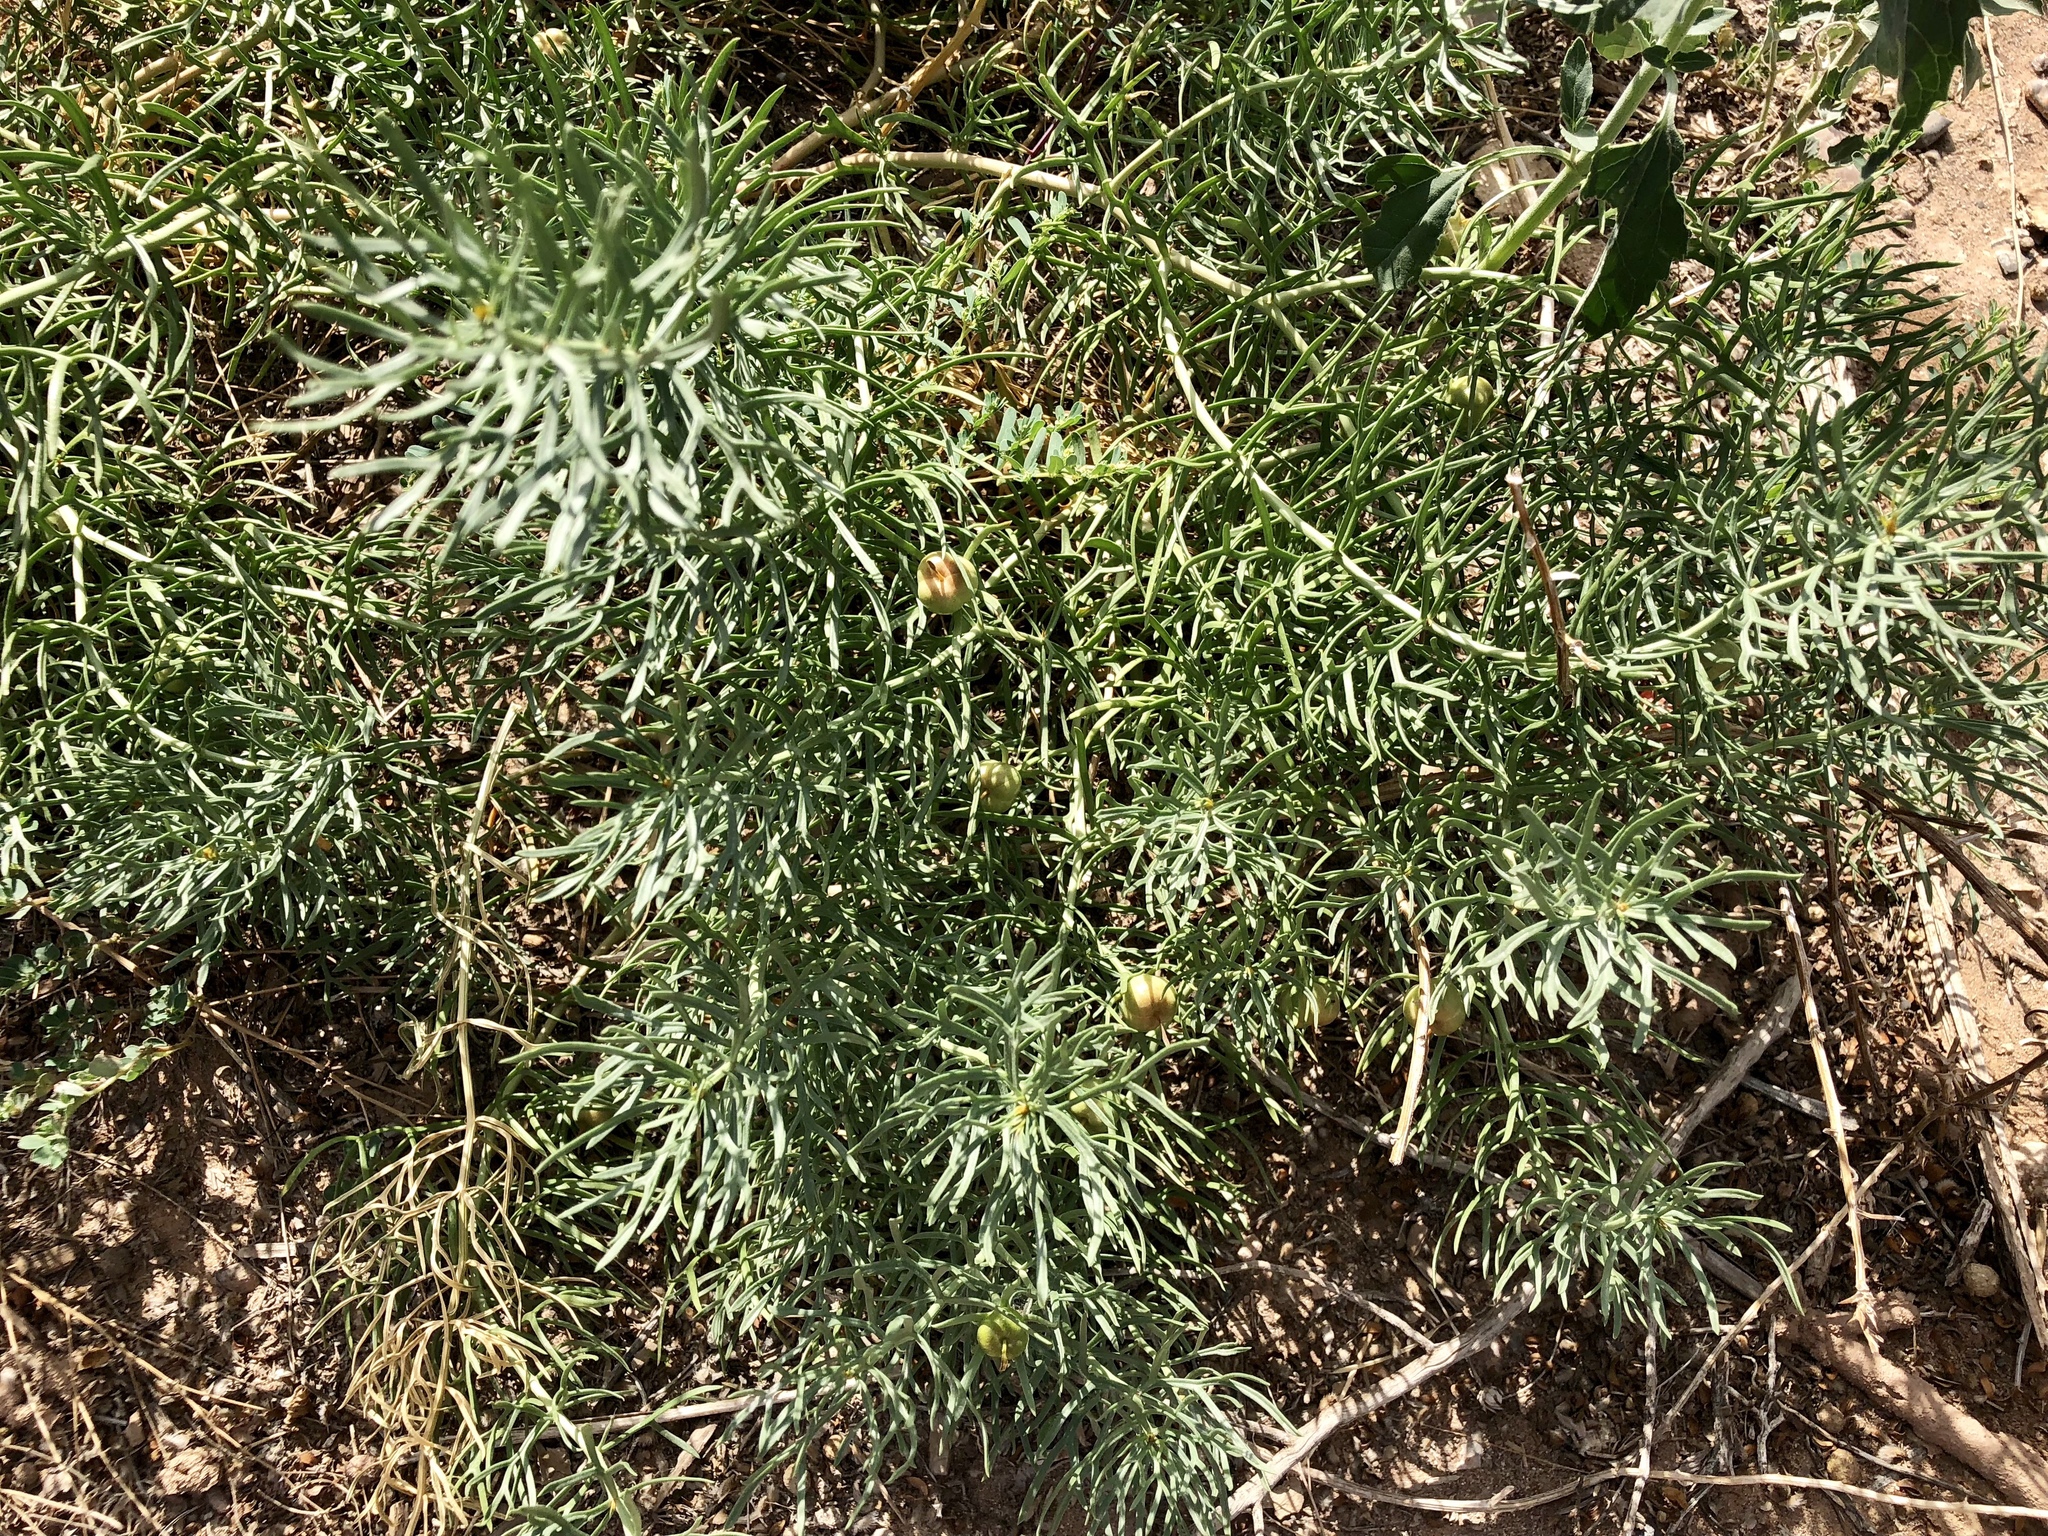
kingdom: Plantae
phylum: Tracheophyta
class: Magnoliopsida
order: Sapindales
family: Tetradiclidaceae
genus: Peganum
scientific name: Peganum harmala
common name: Harmal peganum
